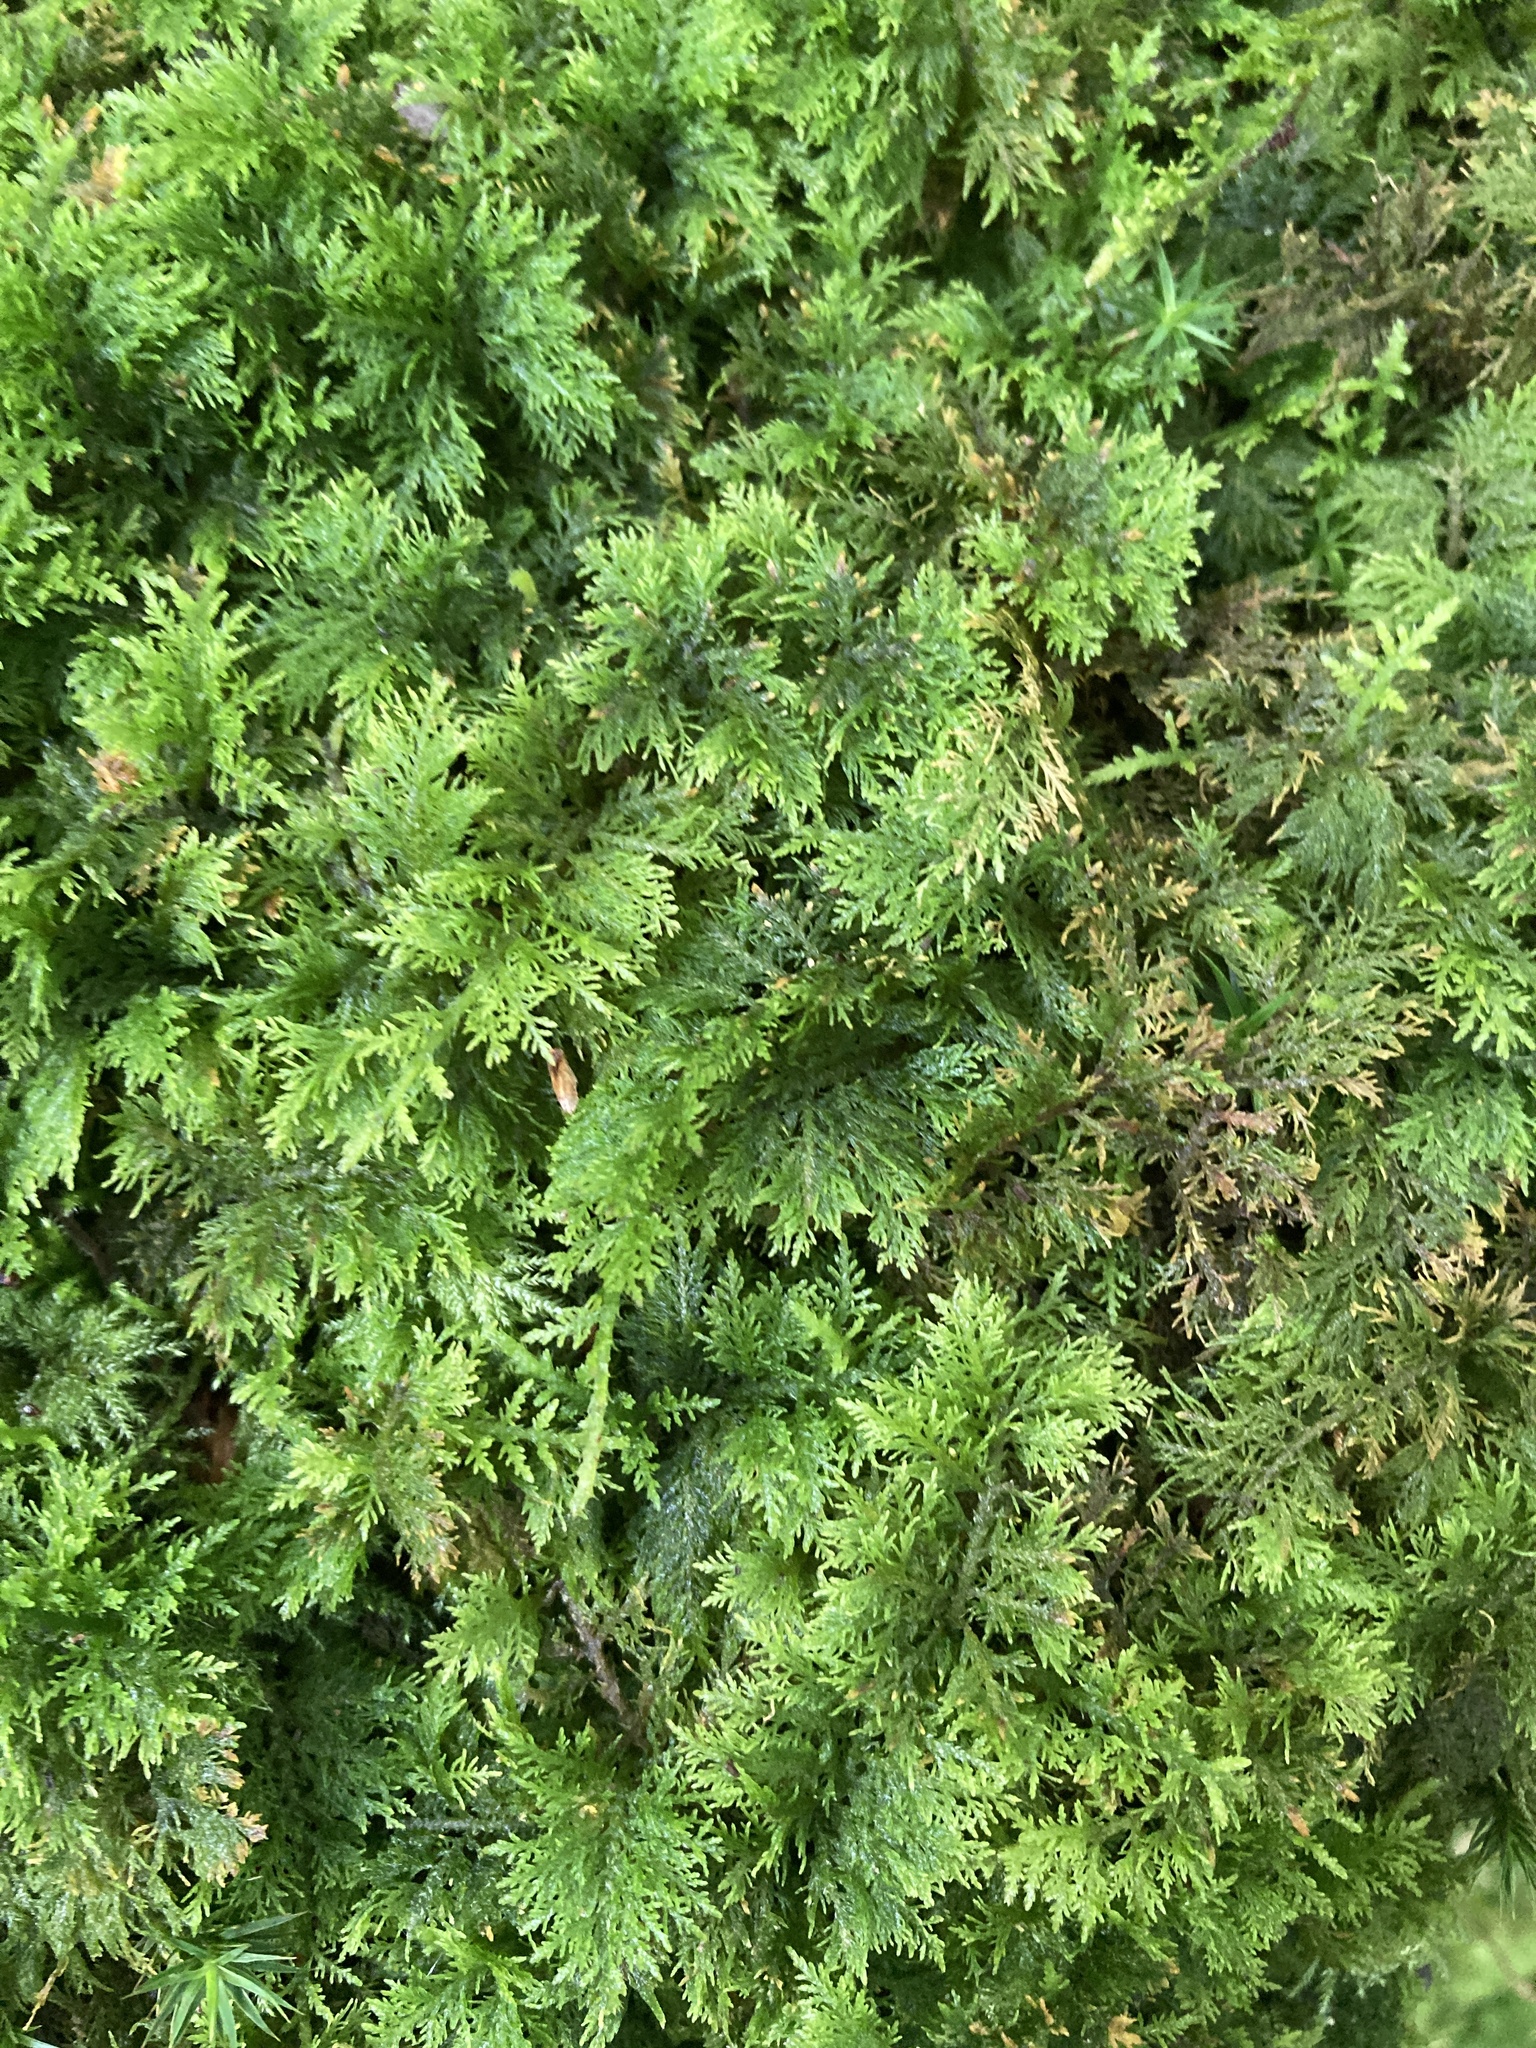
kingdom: Plantae
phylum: Bryophyta
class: Bryopsida
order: Hypnales
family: Thuidiaceae
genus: Thuidium
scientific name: Thuidium tamariscinum
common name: Common tamarisk-moss
